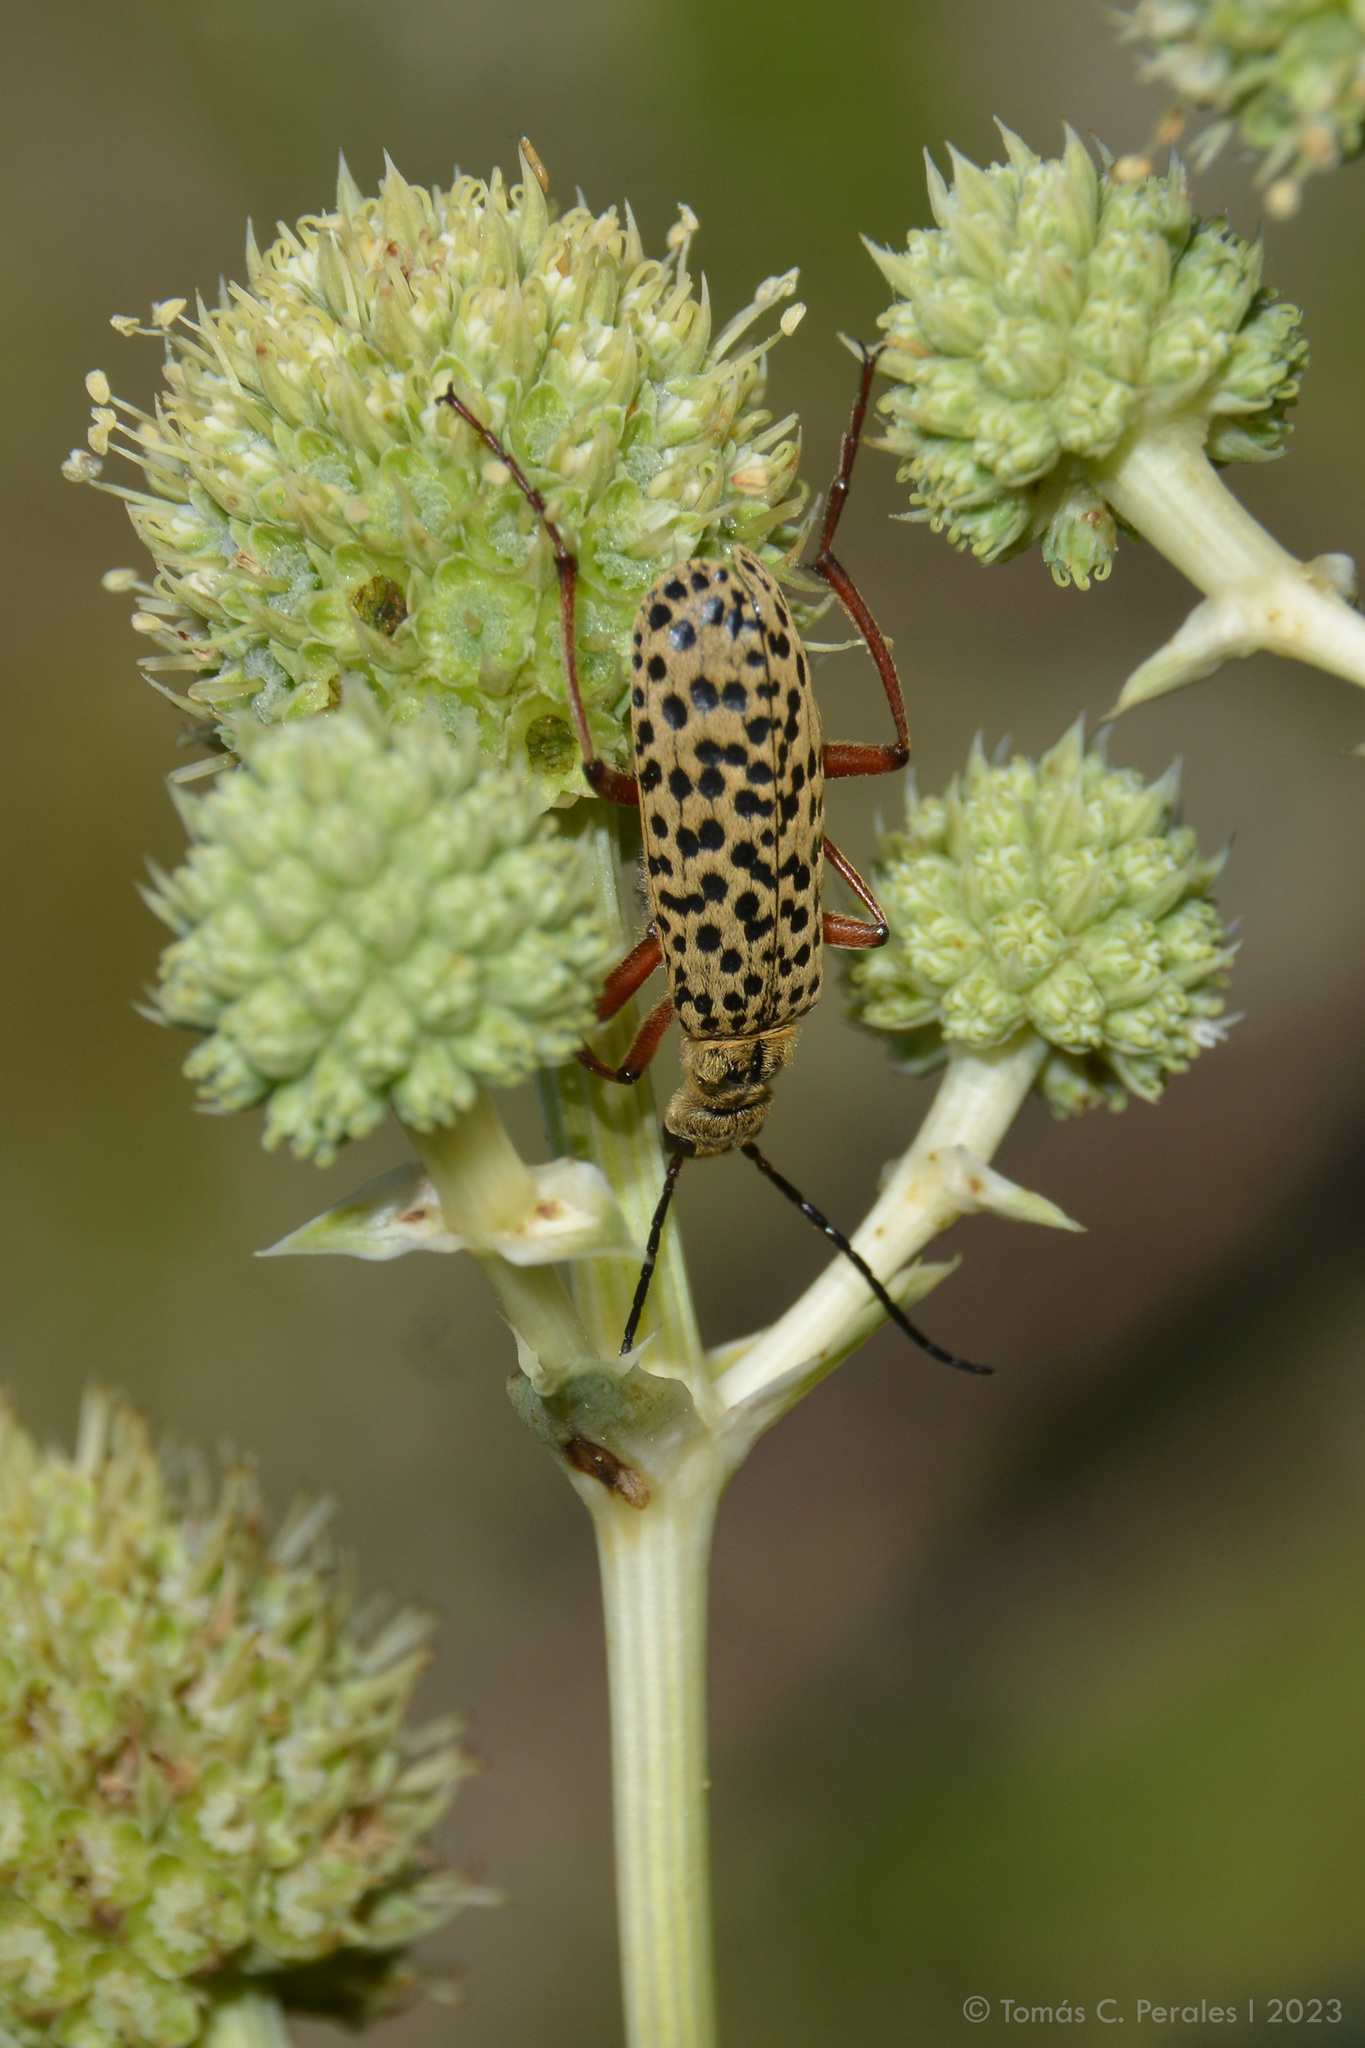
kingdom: Plantae
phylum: Tracheophyta
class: Magnoliopsida
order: Apiales
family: Apiaceae
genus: Eryngium
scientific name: Eryngium horridum
